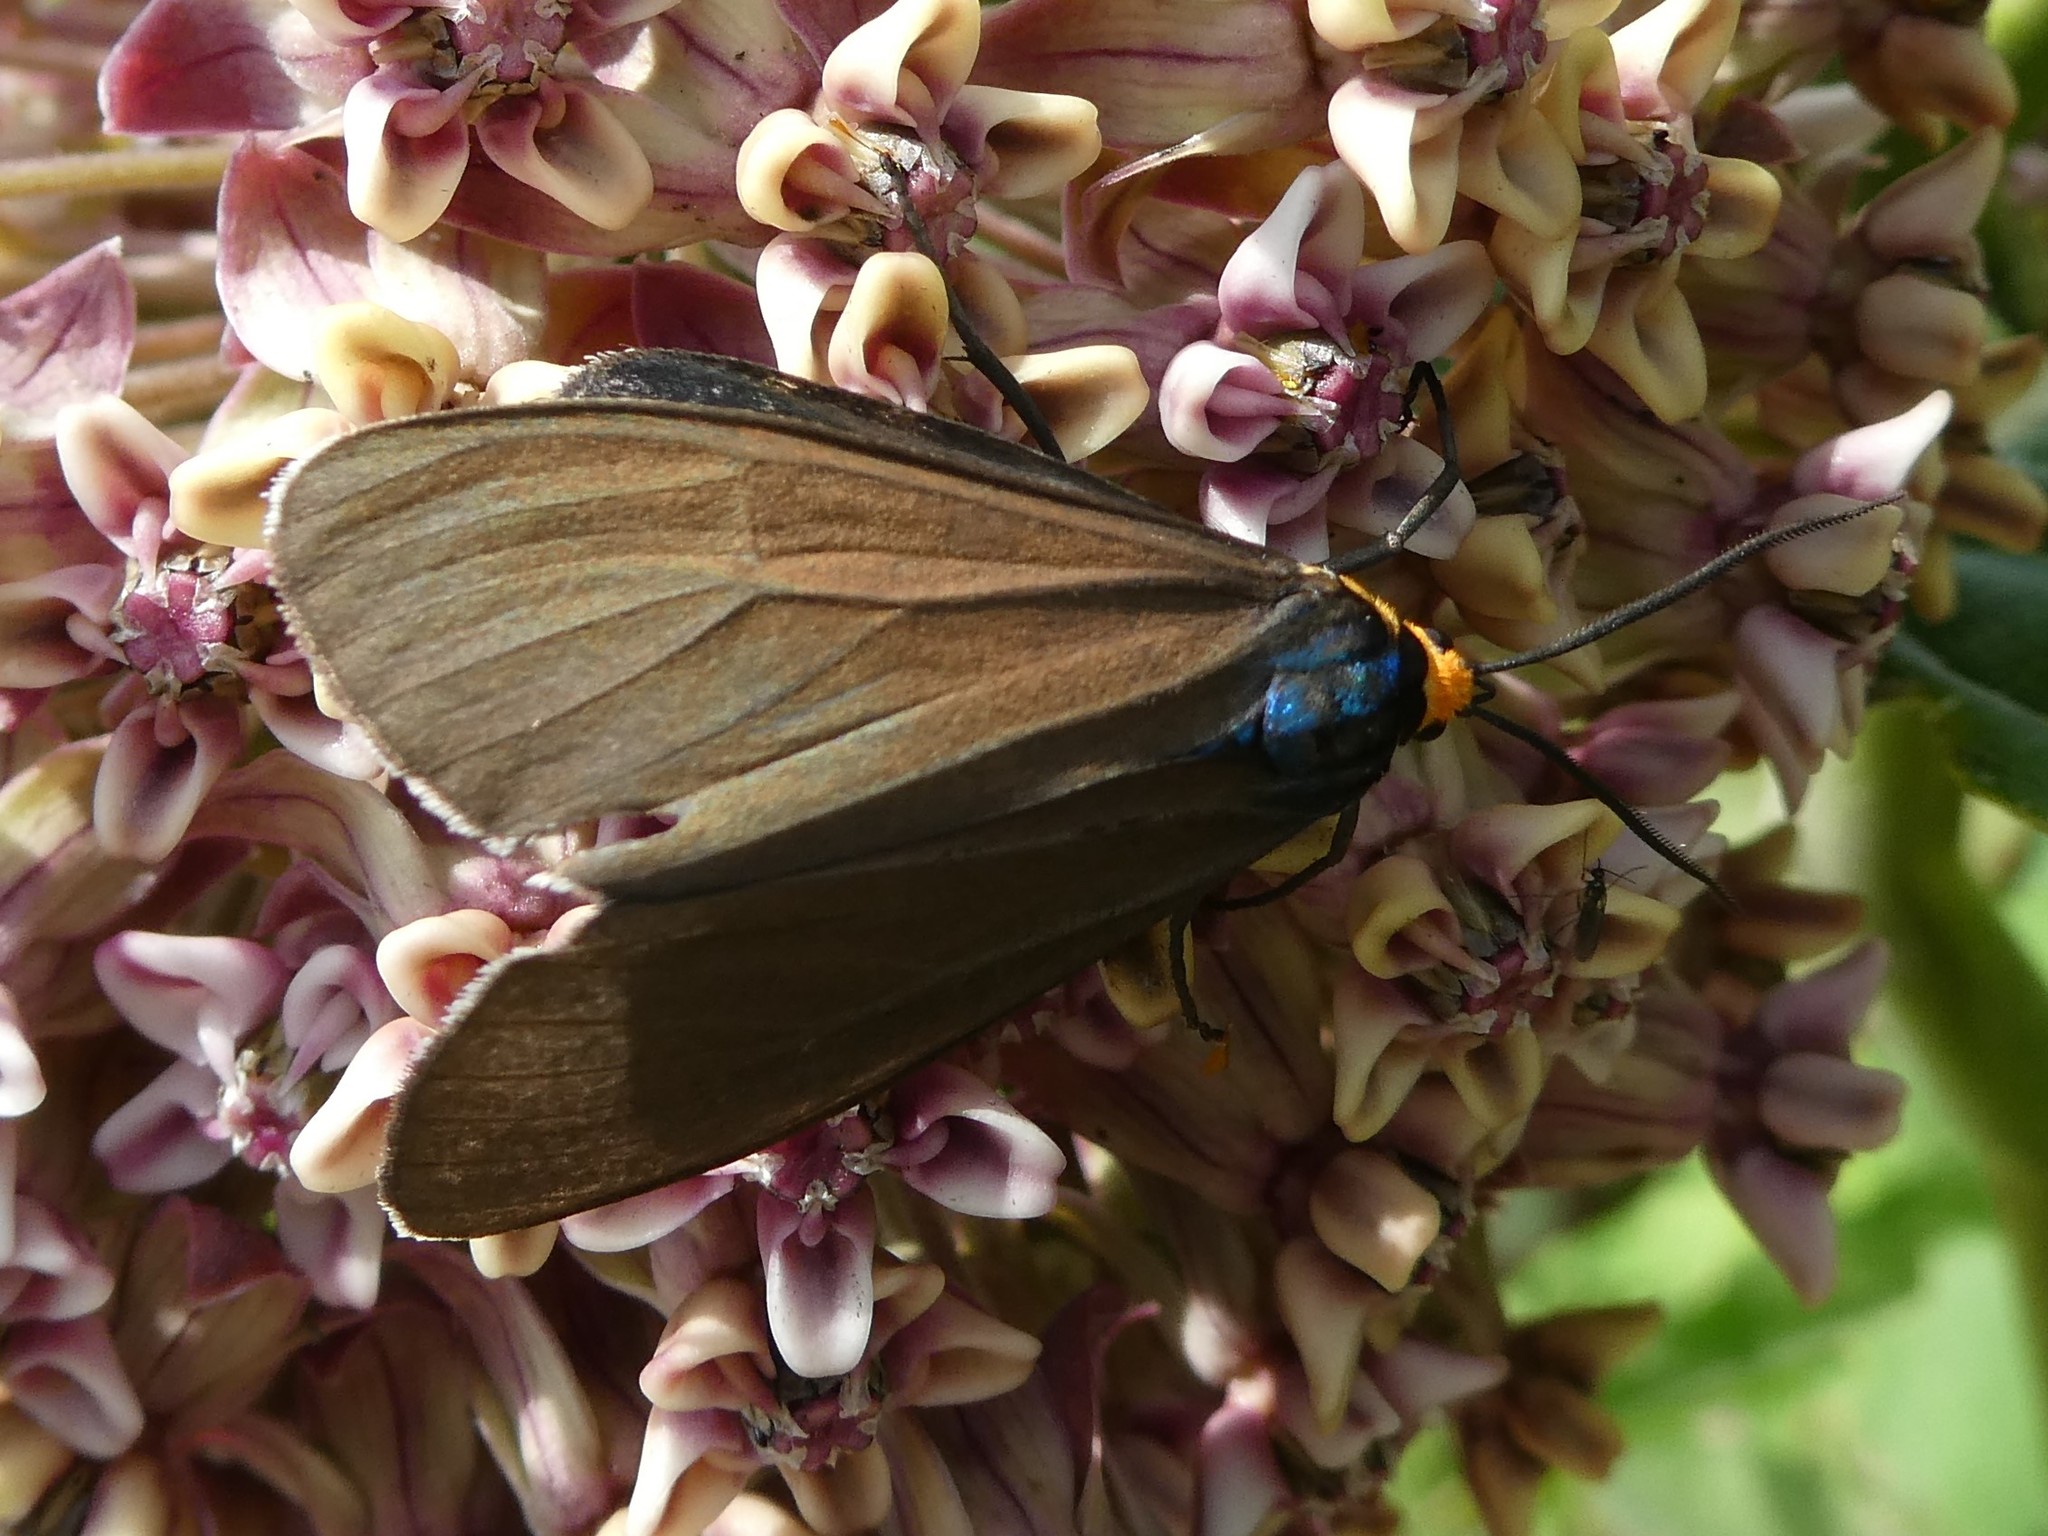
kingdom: Animalia
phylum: Arthropoda
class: Insecta
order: Lepidoptera
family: Erebidae
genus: Ctenucha
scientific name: Ctenucha virginica
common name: Virginia ctenucha moth
